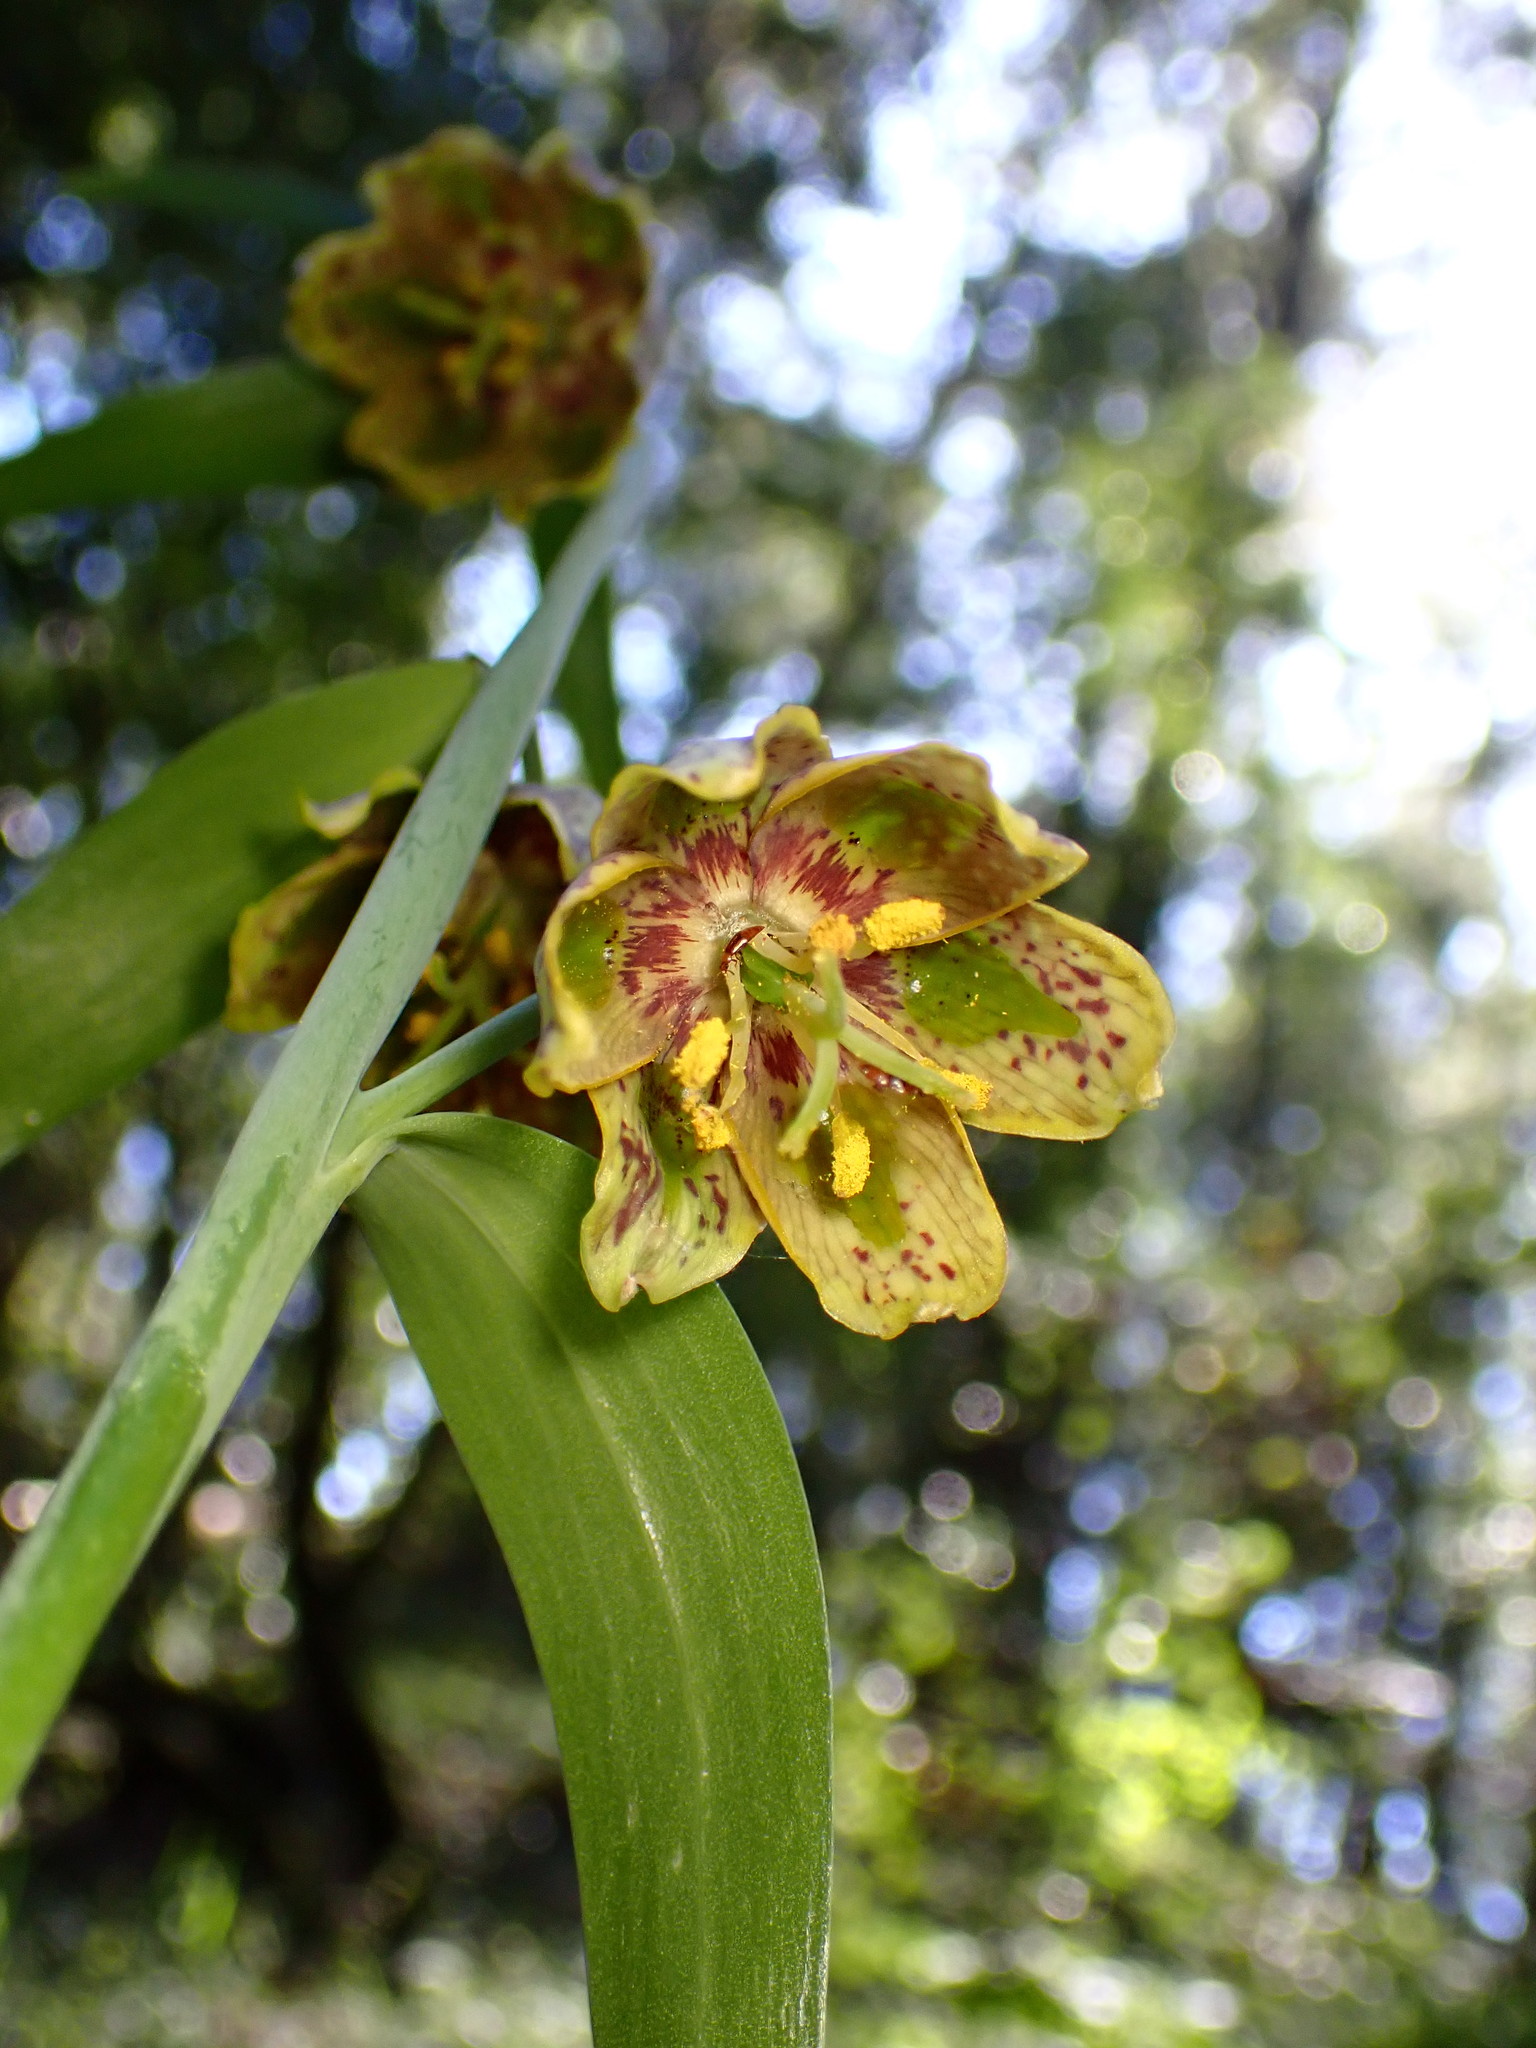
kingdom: Plantae
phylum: Tracheophyta
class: Liliopsida
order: Liliales
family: Liliaceae
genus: Fritillaria
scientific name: Fritillaria affinis
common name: Ojai fritillary
